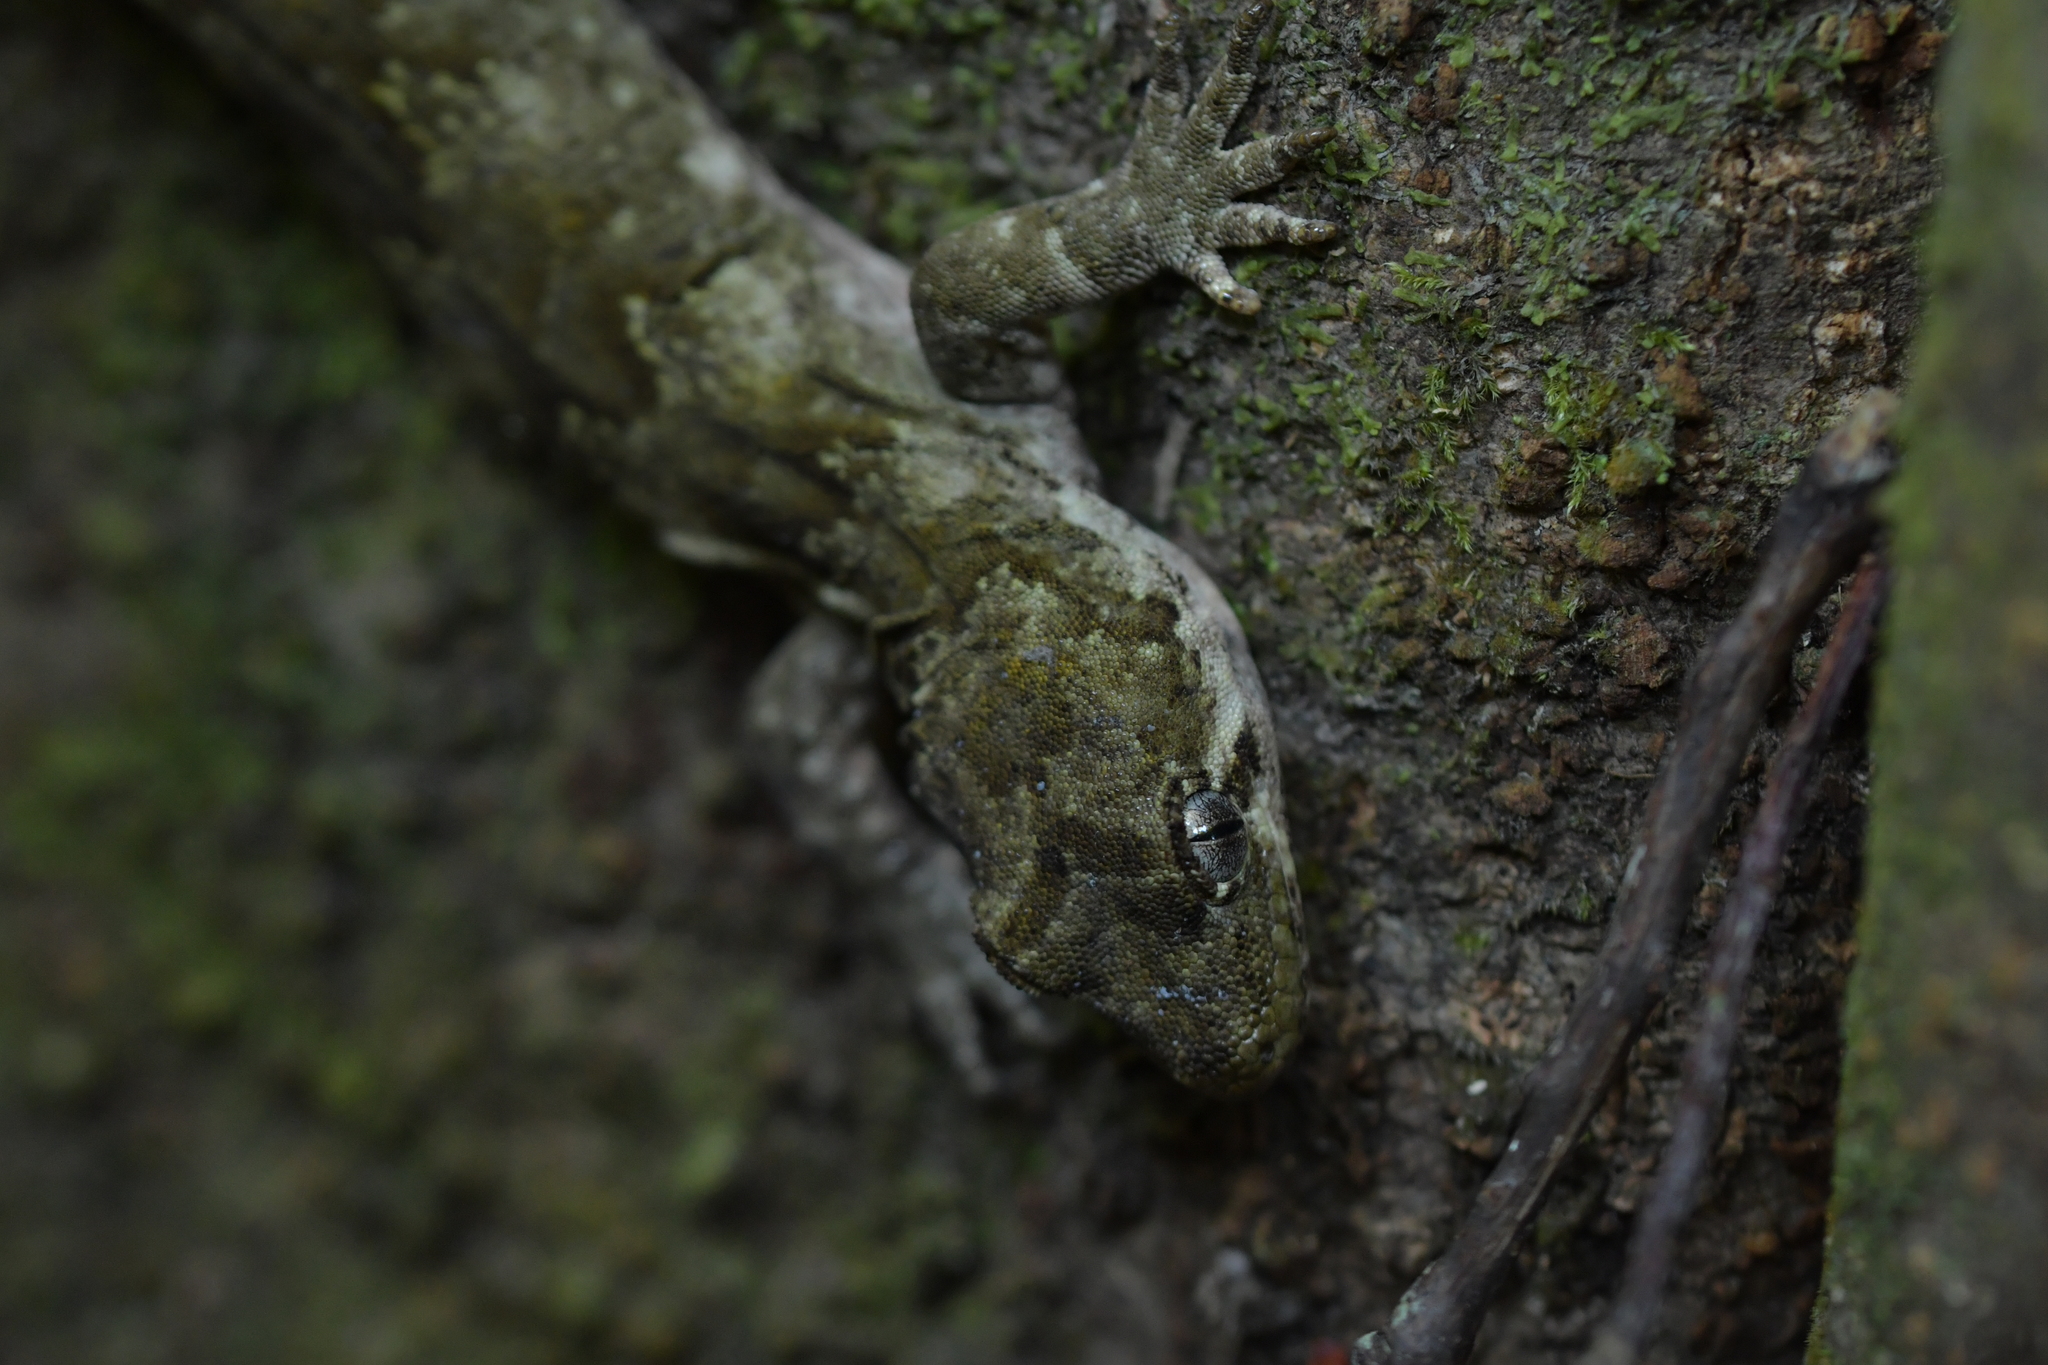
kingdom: Animalia
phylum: Chordata
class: Squamata
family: Diplodactylidae
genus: Mokopirirakau
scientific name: Mokopirirakau
